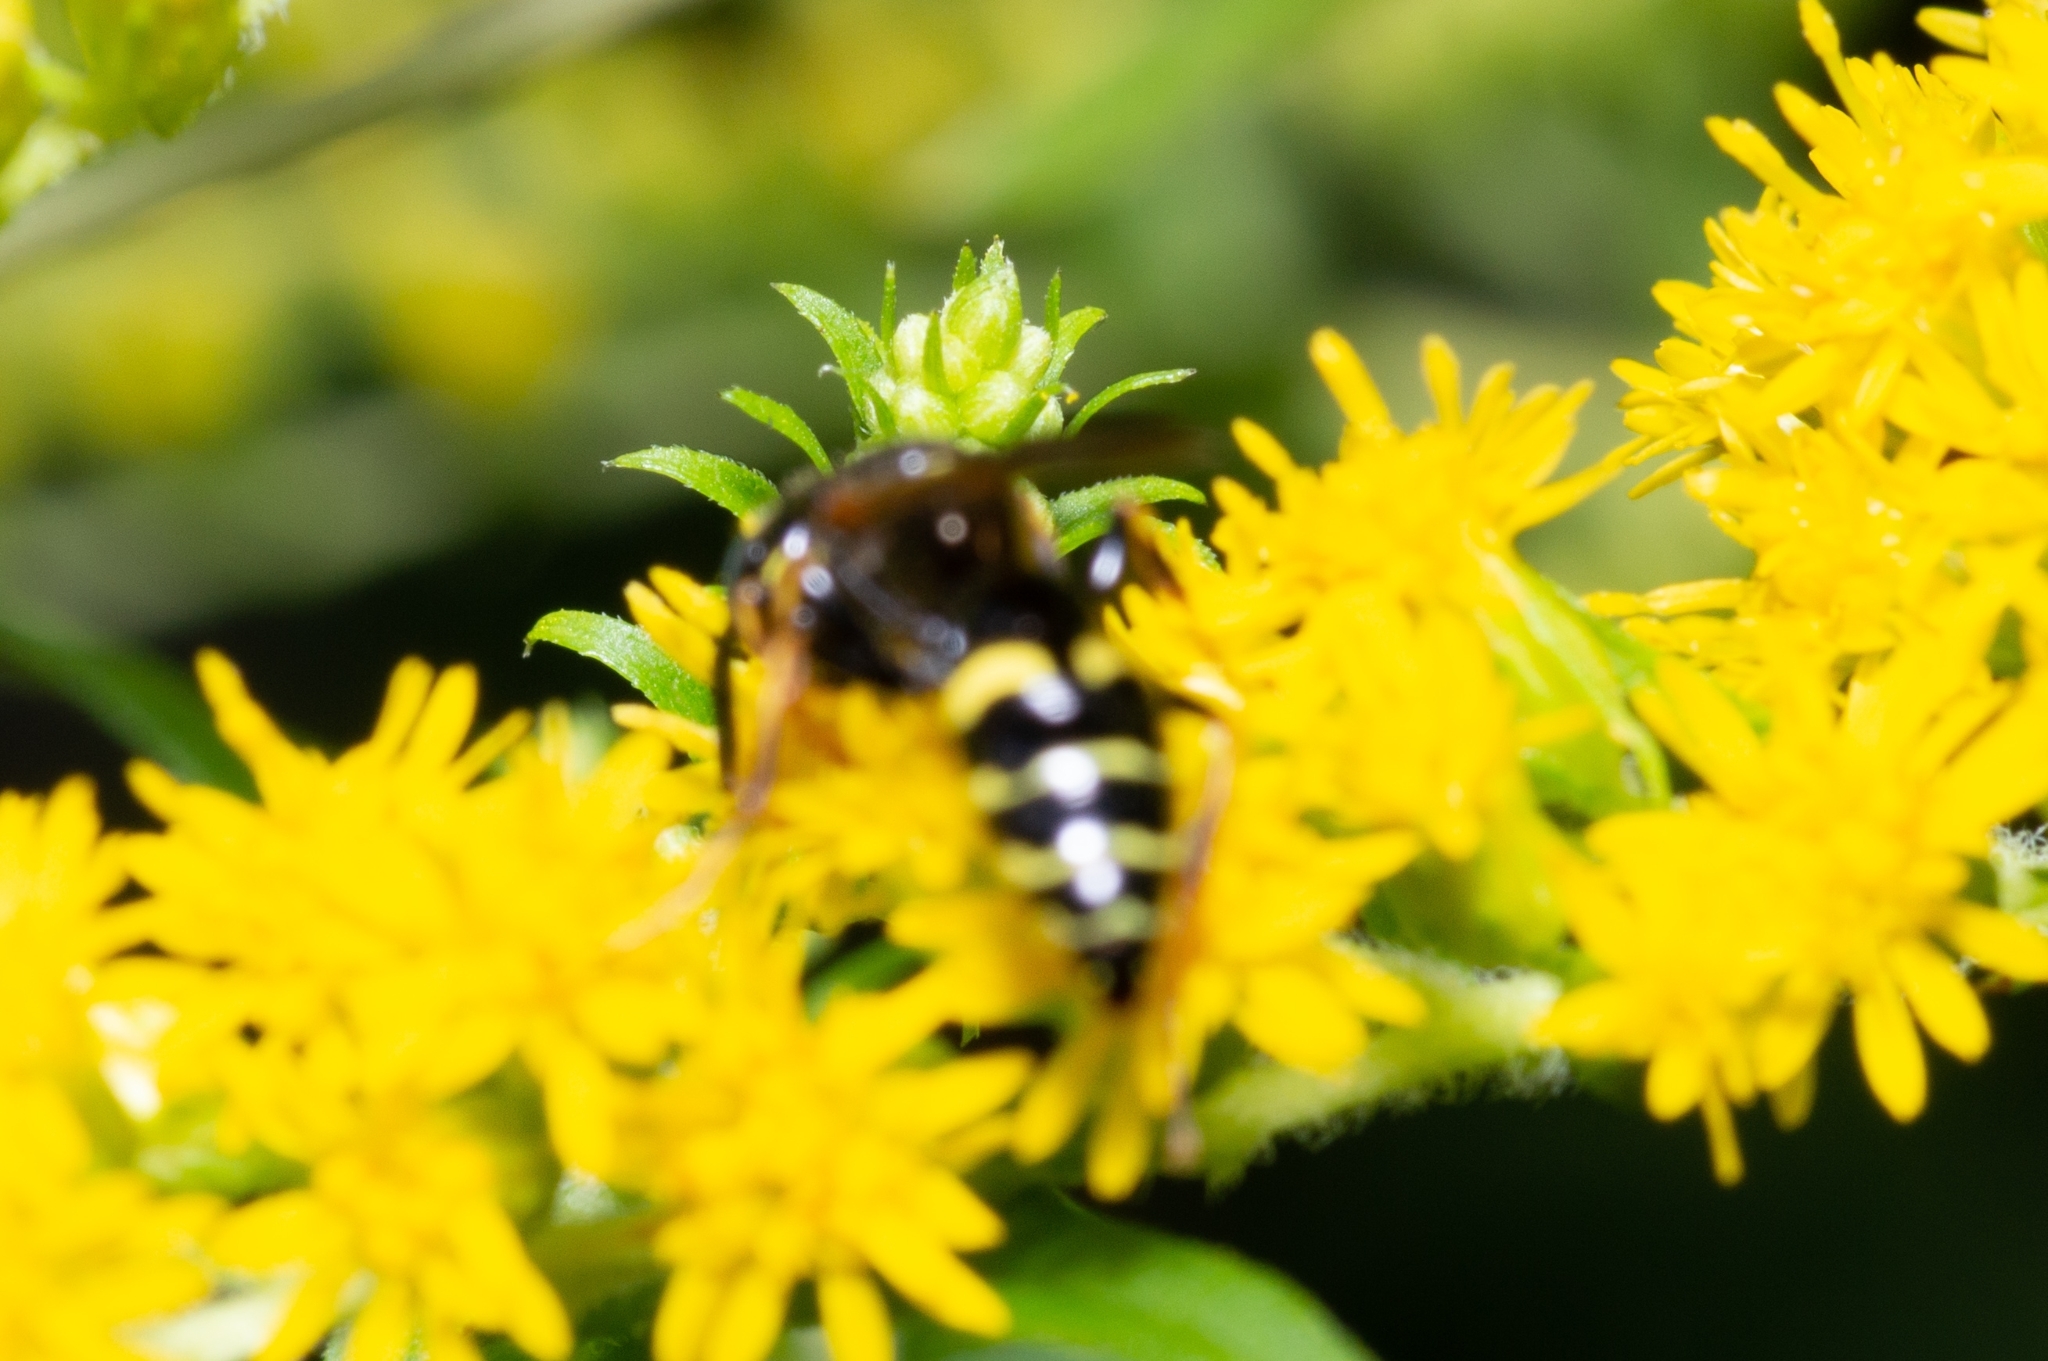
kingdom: Animalia
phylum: Arthropoda
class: Insecta
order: Hymenoptera
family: Crabronidae
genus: Philanthus
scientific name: Philanthus bilunatus
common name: Two moons beewolf
